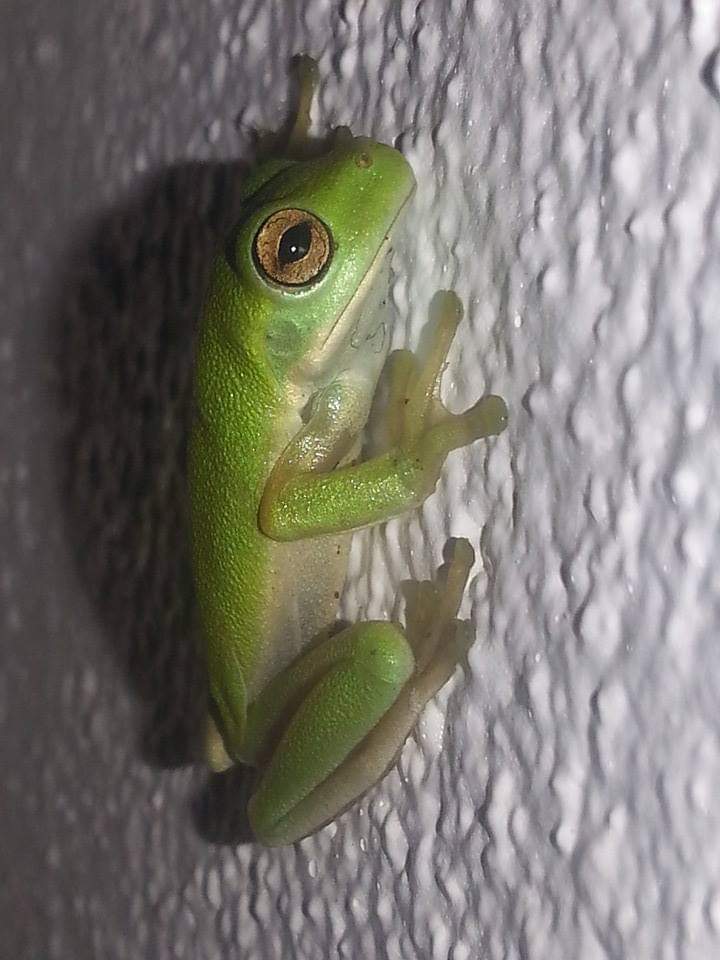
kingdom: Animalia
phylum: Chordata
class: Amphibia
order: Anura
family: Pelodryadidae
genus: Ranoidea
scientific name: Ranoidea gracilenta
